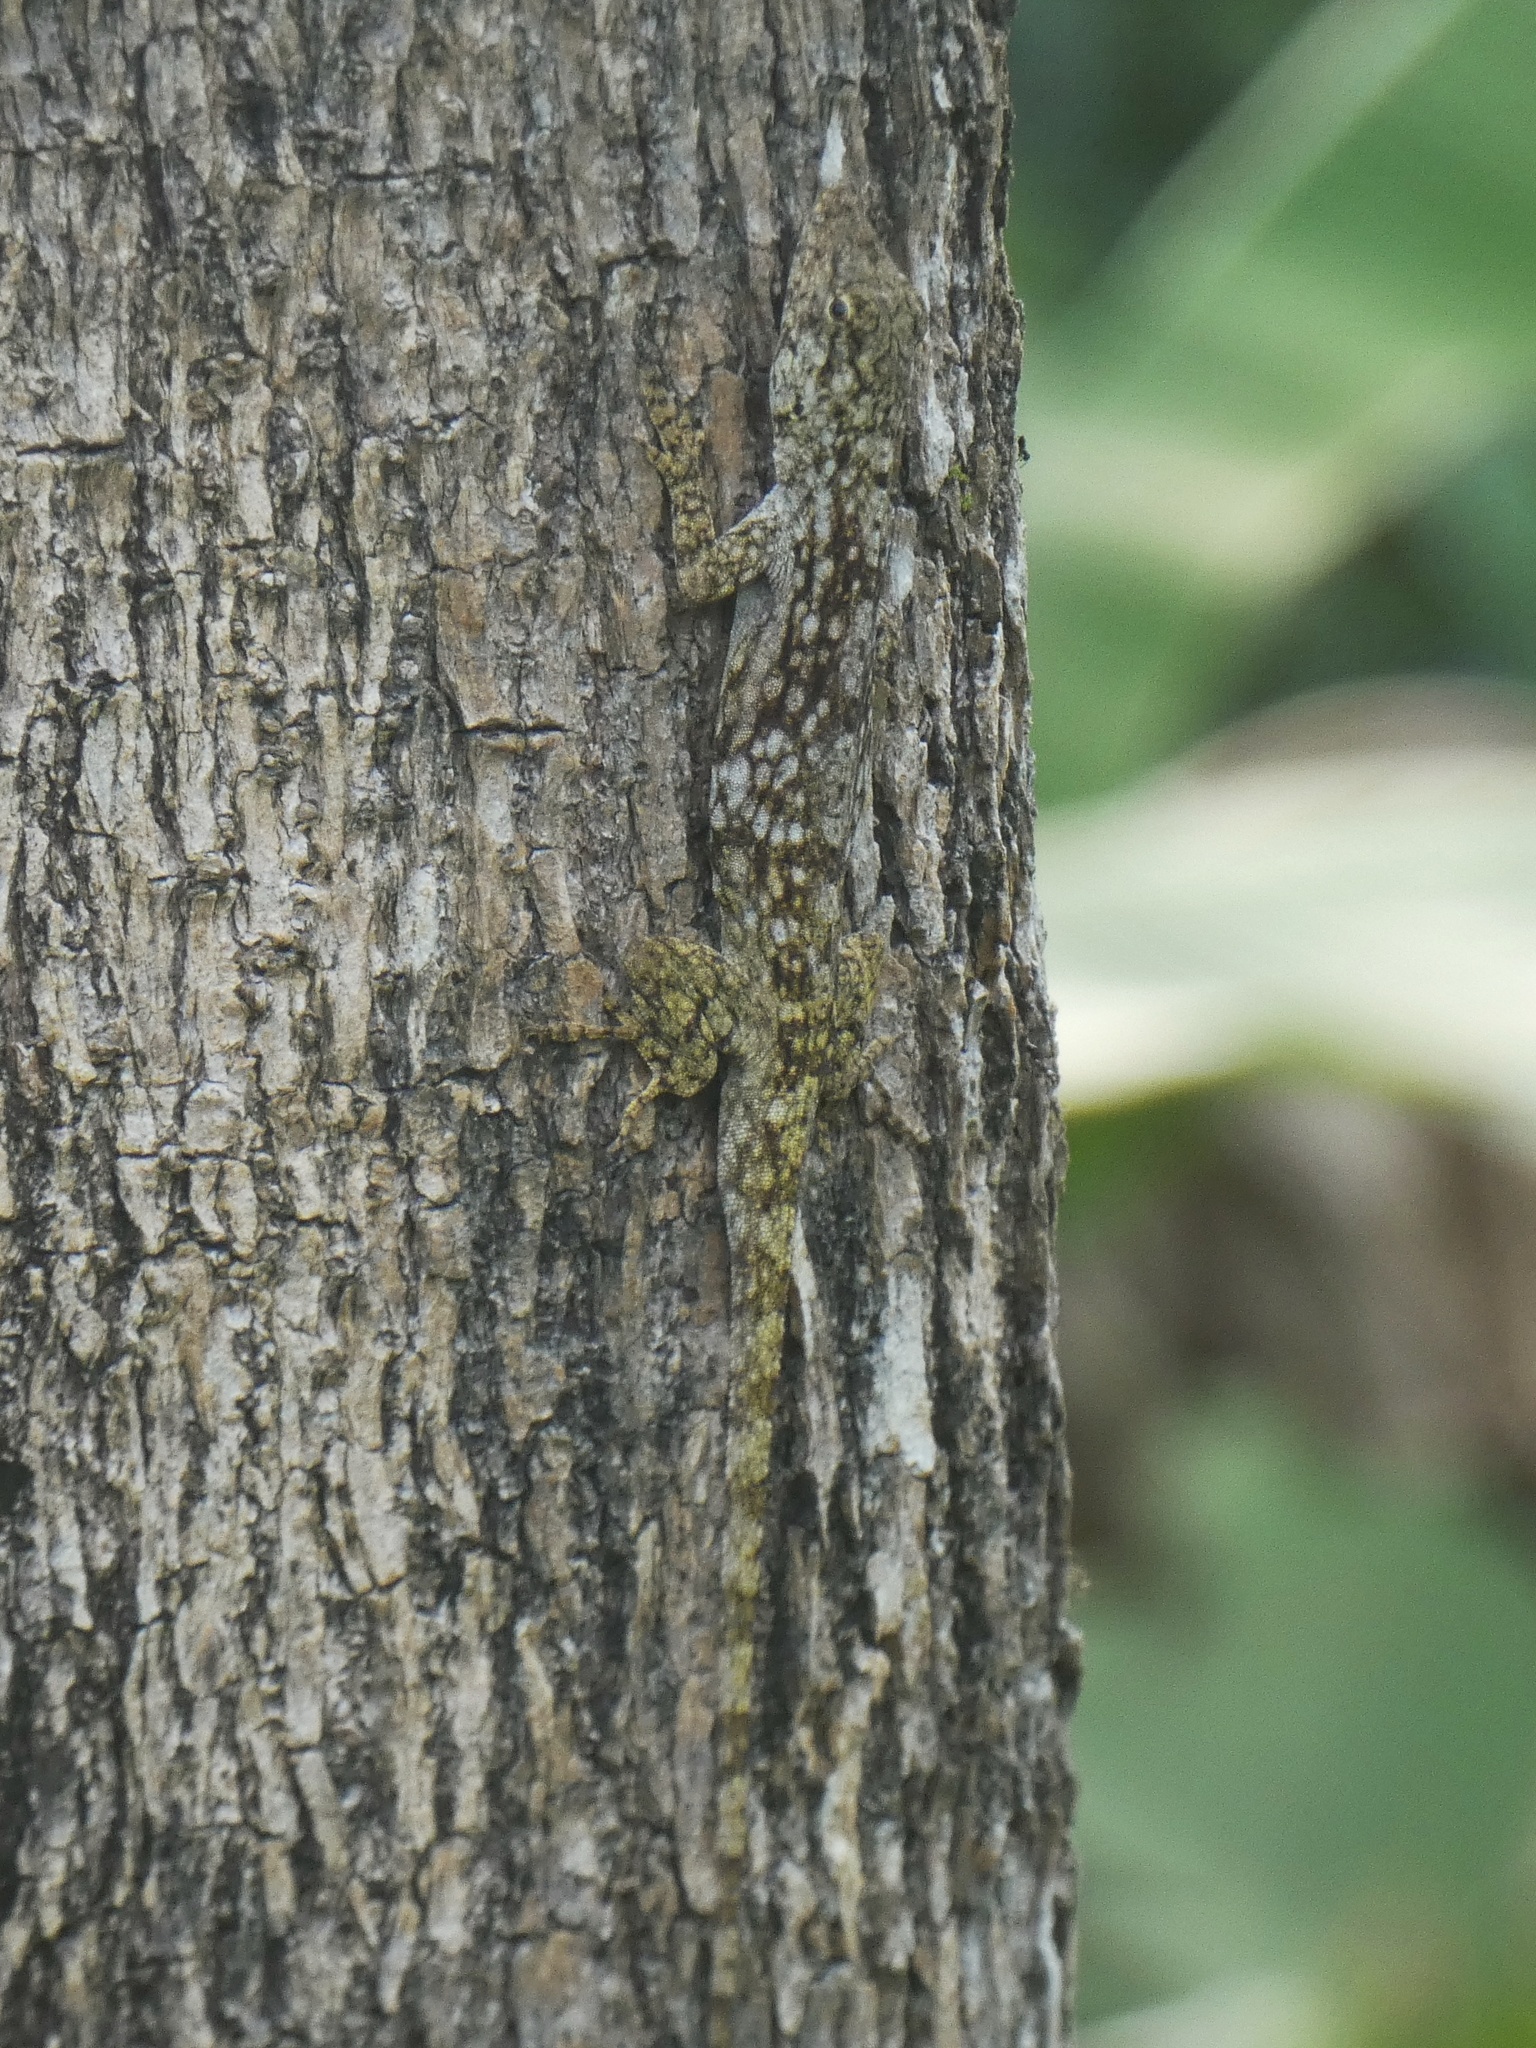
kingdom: Animalia
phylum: Chordata
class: Squamata
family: Dactyloidae
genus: Anolis
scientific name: Anolis pentaprion
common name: Lichen anole
